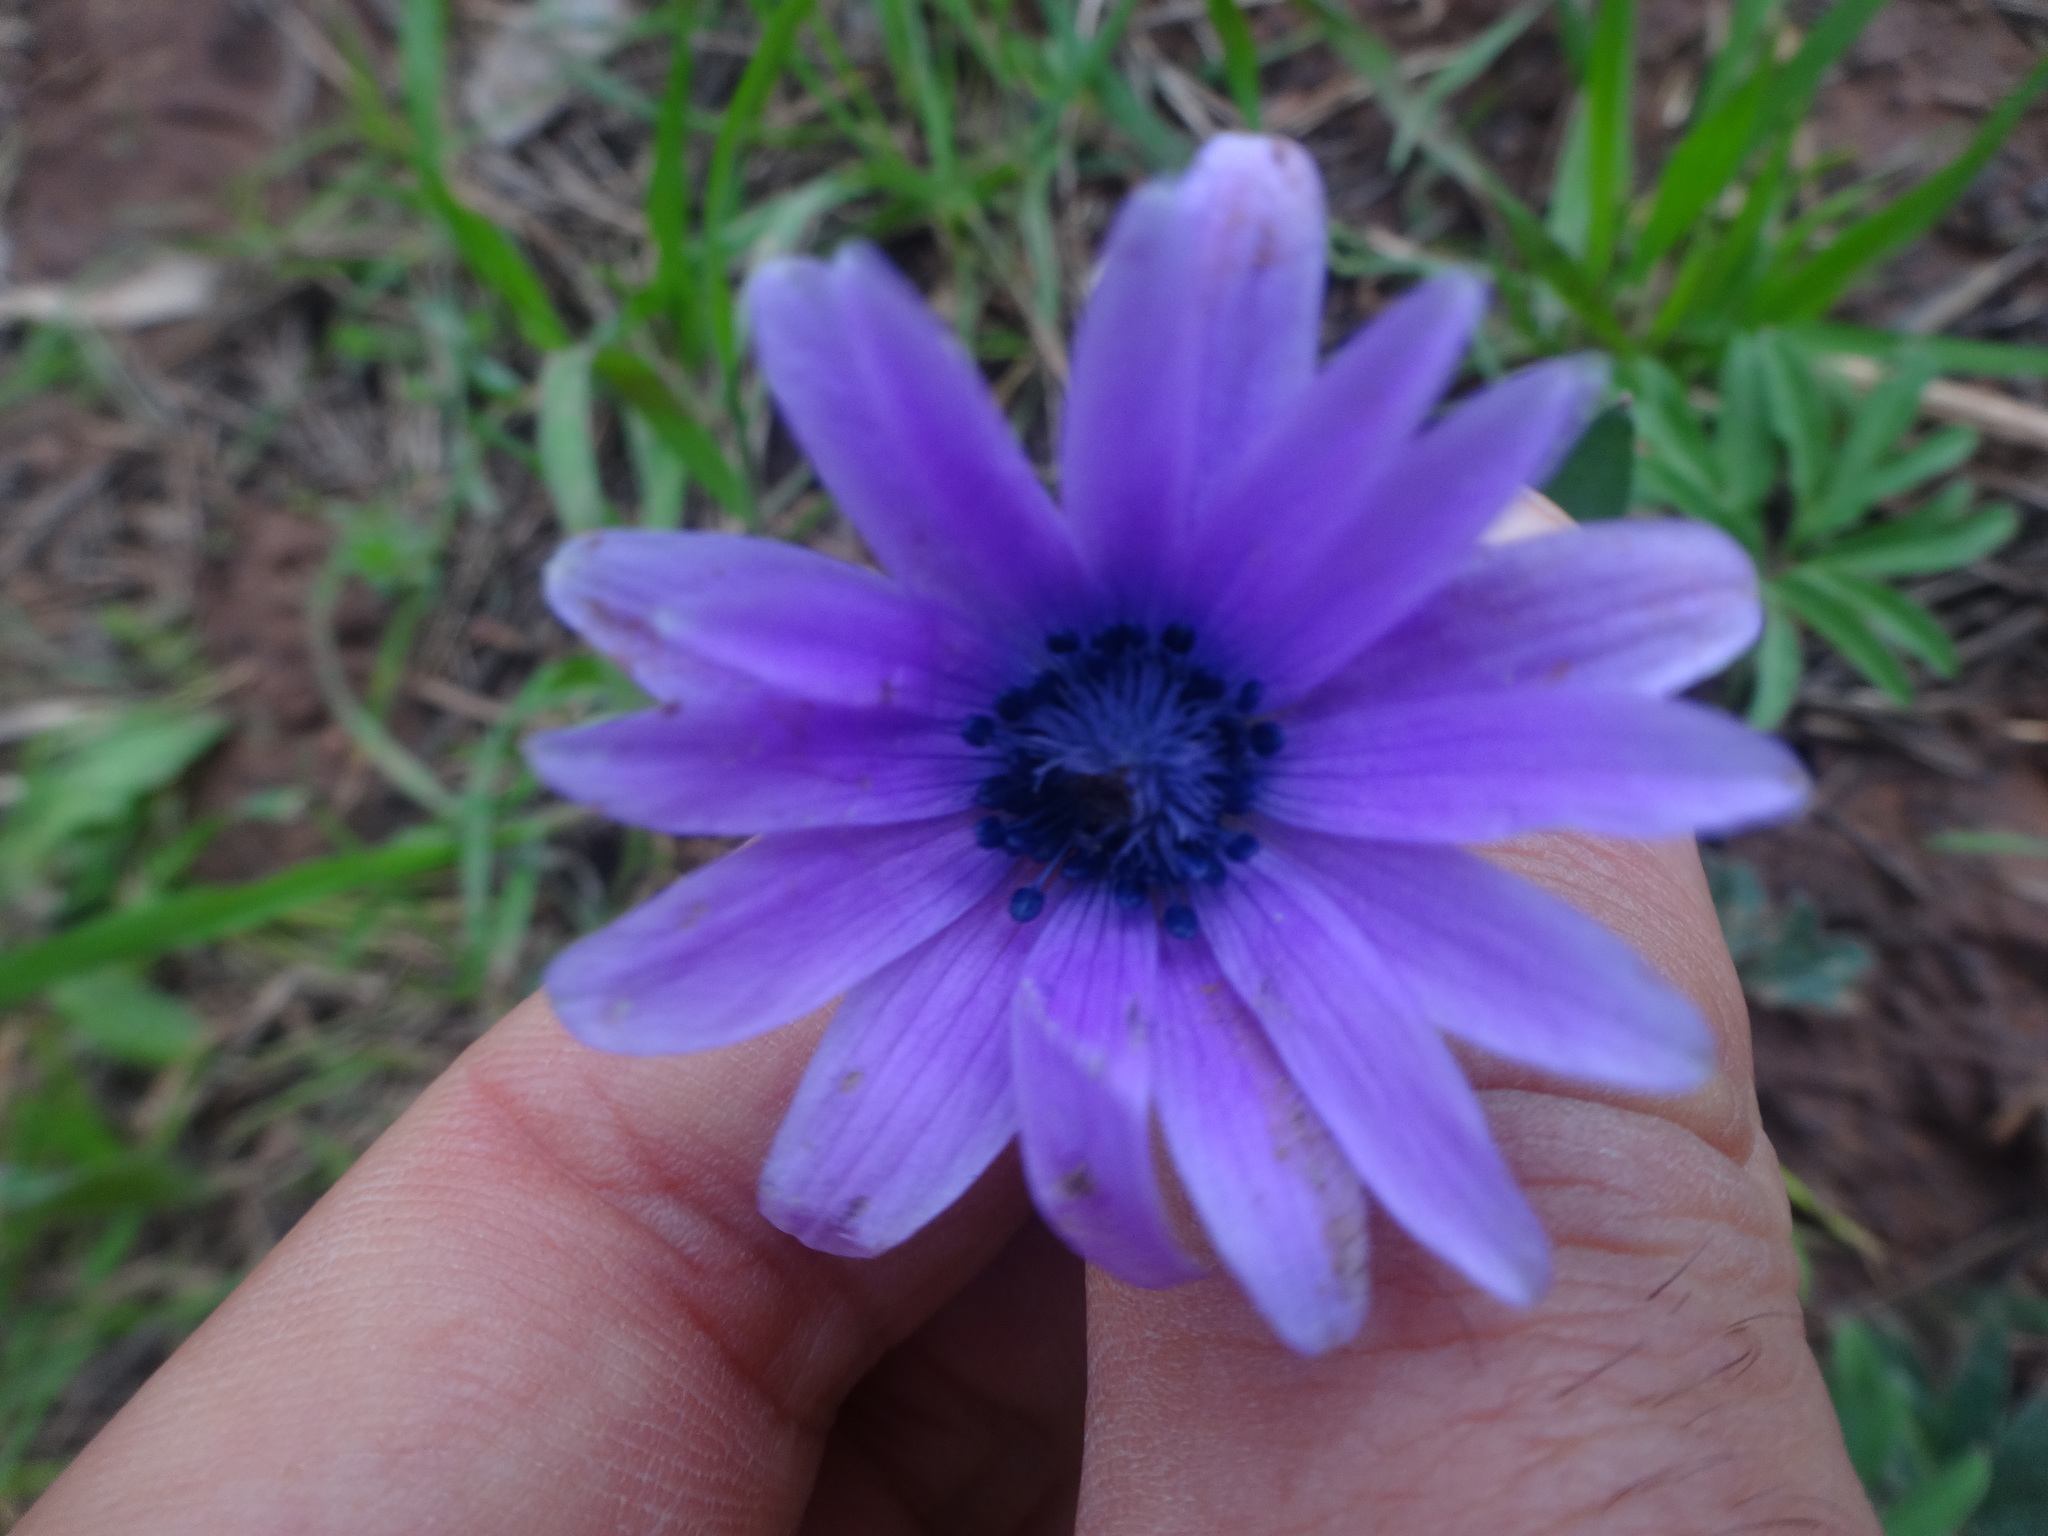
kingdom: Plantae
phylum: Tracheophyta
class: Magnoliopsida
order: Ranunculales
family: Ranunculaceae
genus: Anemone
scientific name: Anemone hortensis
